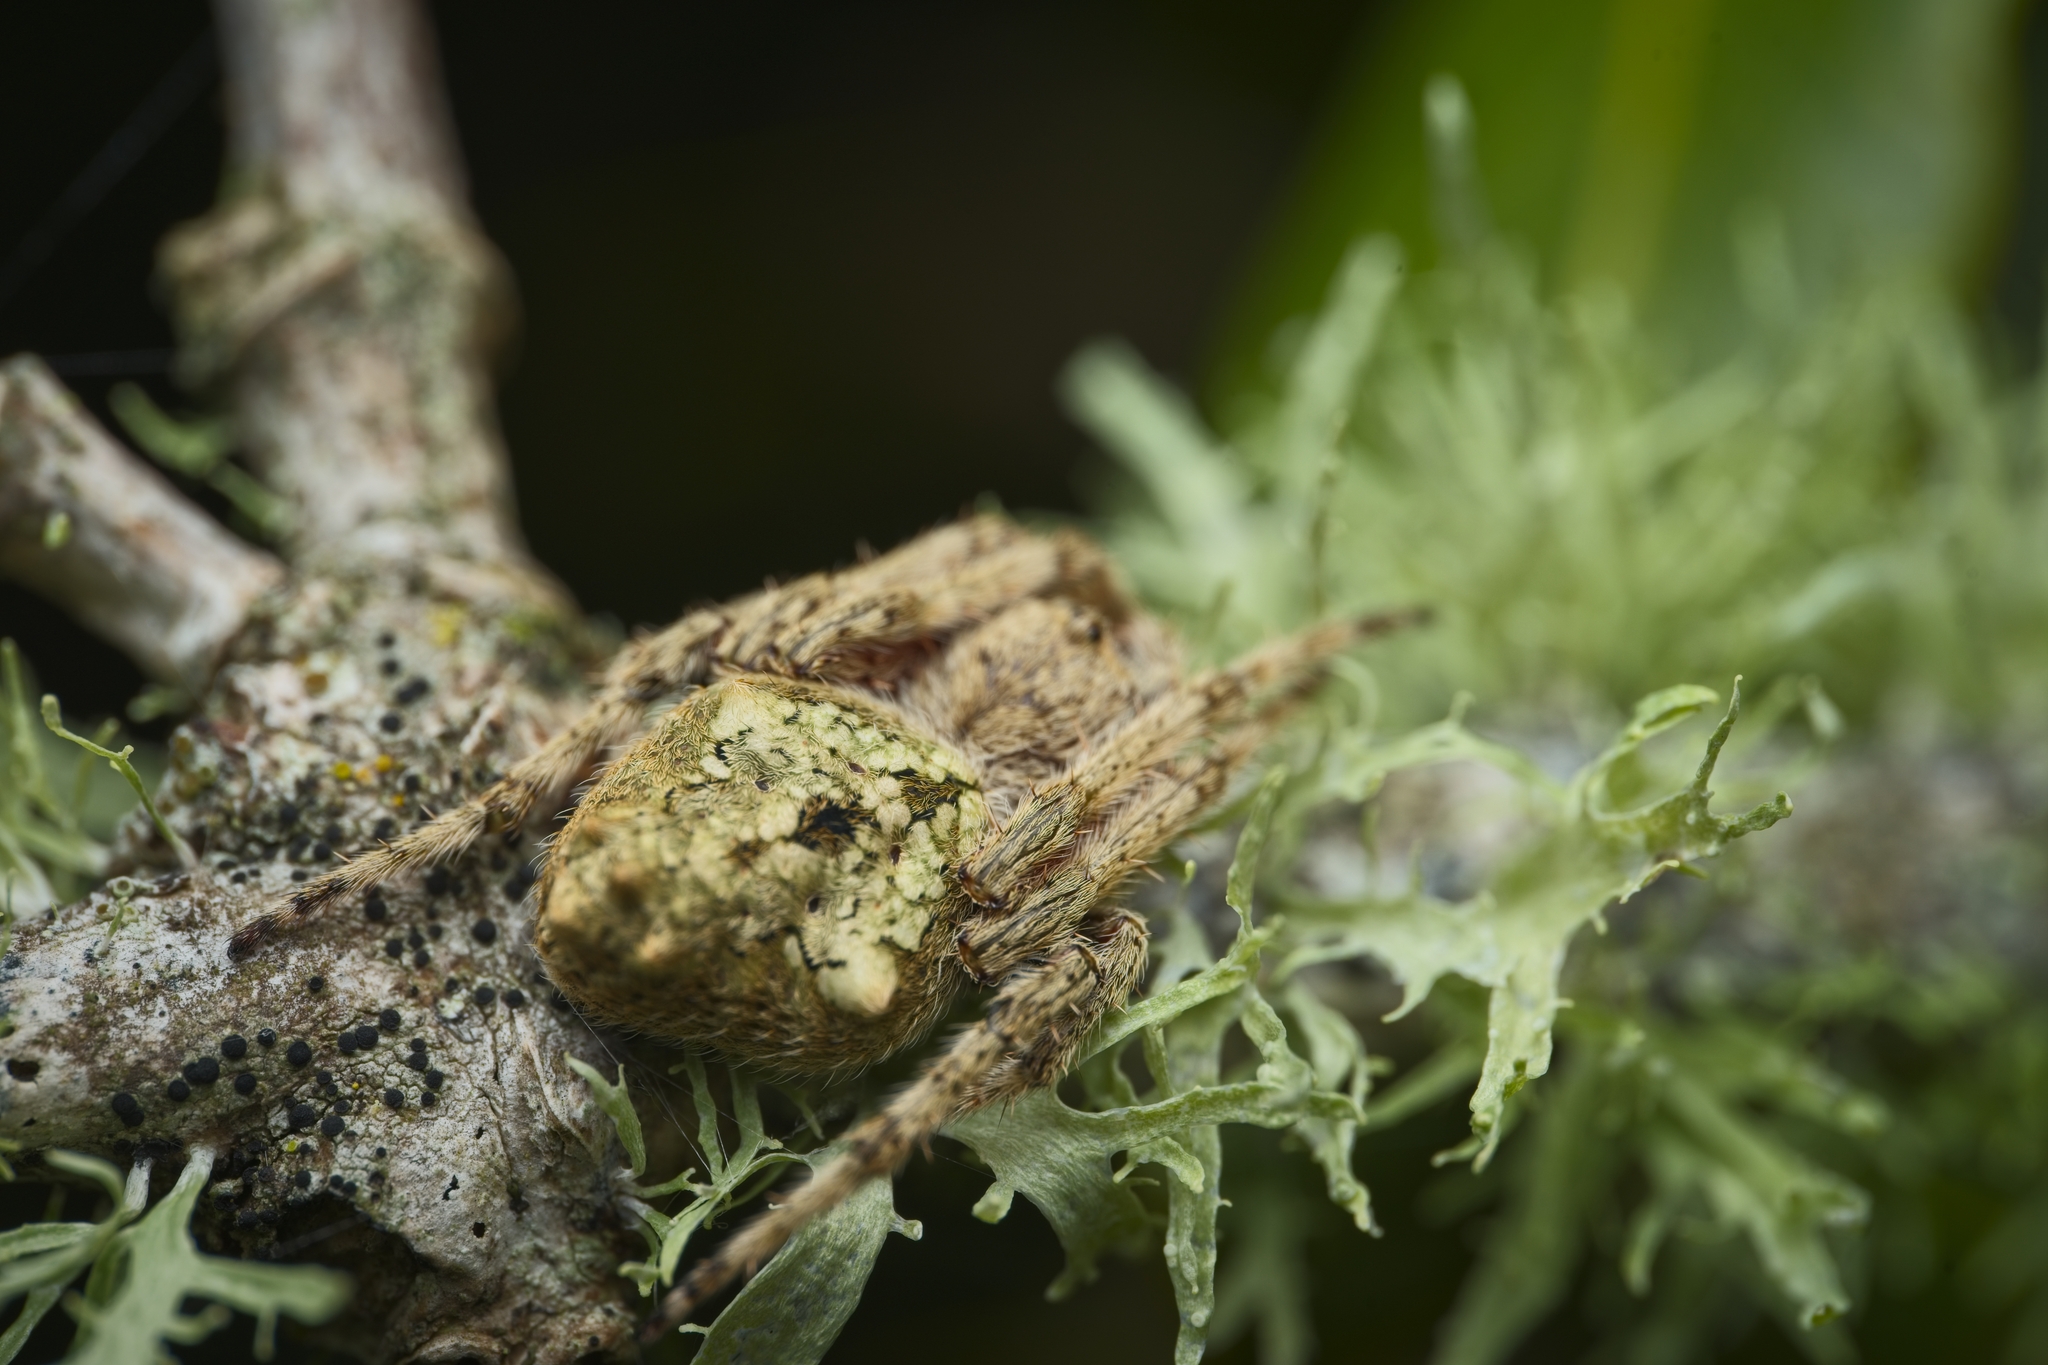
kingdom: Animalia
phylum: Arthropoda
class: Arachnida
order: Araneae
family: Araneidae
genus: Eriophora
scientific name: Eriophora pustulosa
